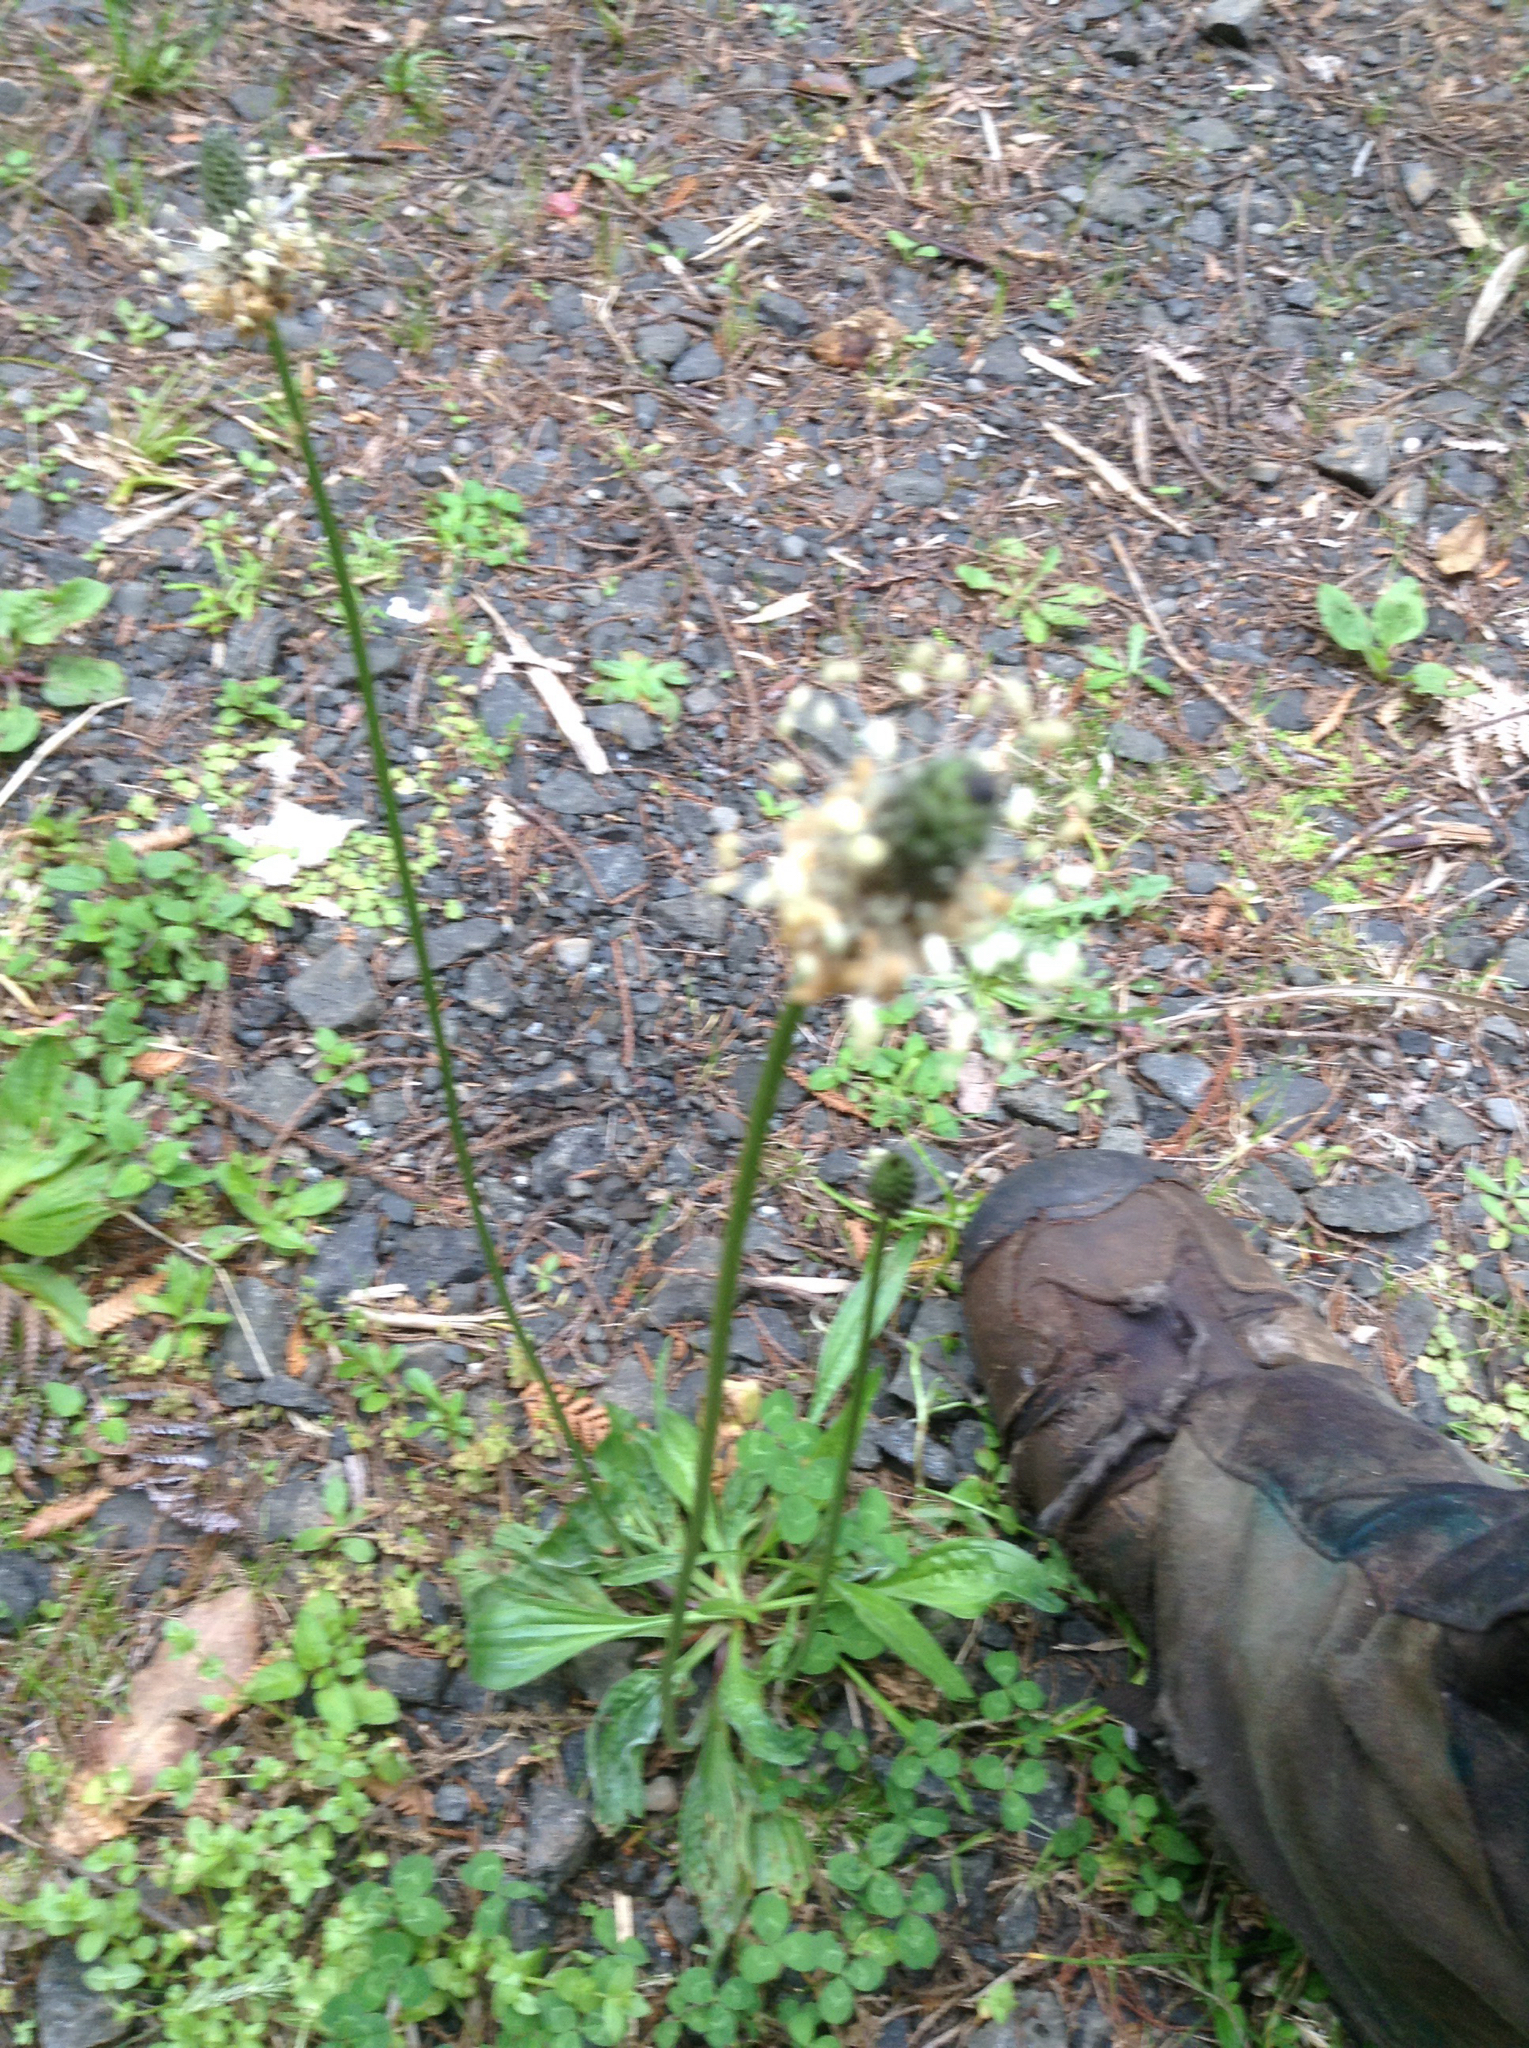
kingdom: Plantae
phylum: Tracheophyta
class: Magnoliopsida
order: Lamiales
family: Plantaginaceae
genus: Plantago
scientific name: Plantago lanceolata
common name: Ribwort plantain
